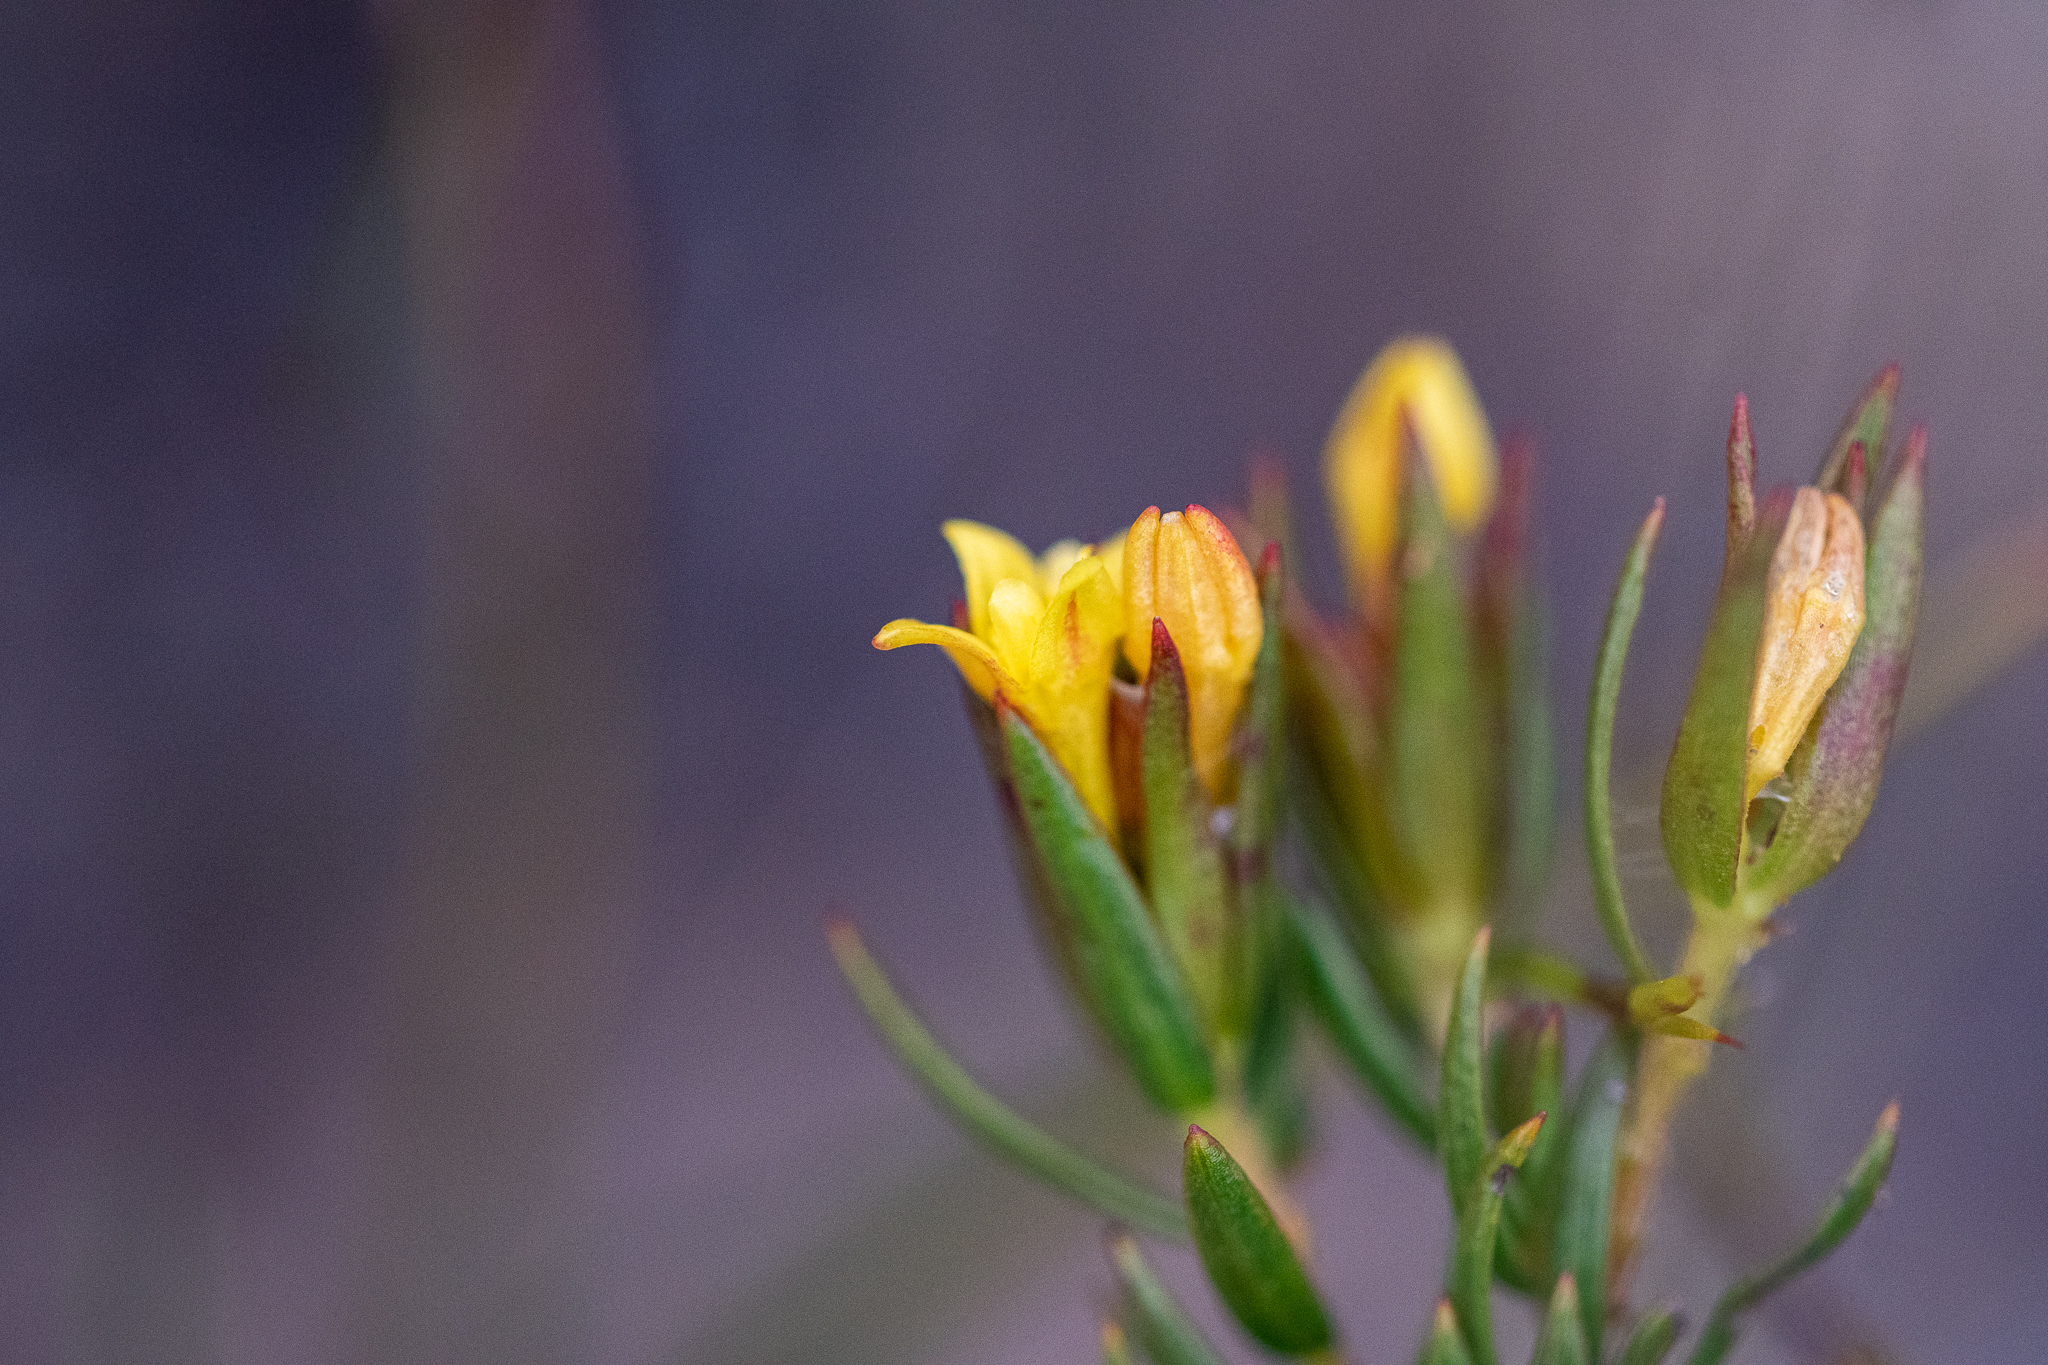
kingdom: Plantae
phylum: Tracheophyta
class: Magnoliopsida
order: Malvales
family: Thymelaeaceae
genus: Gnidia
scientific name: Gnidia juniperifolia
